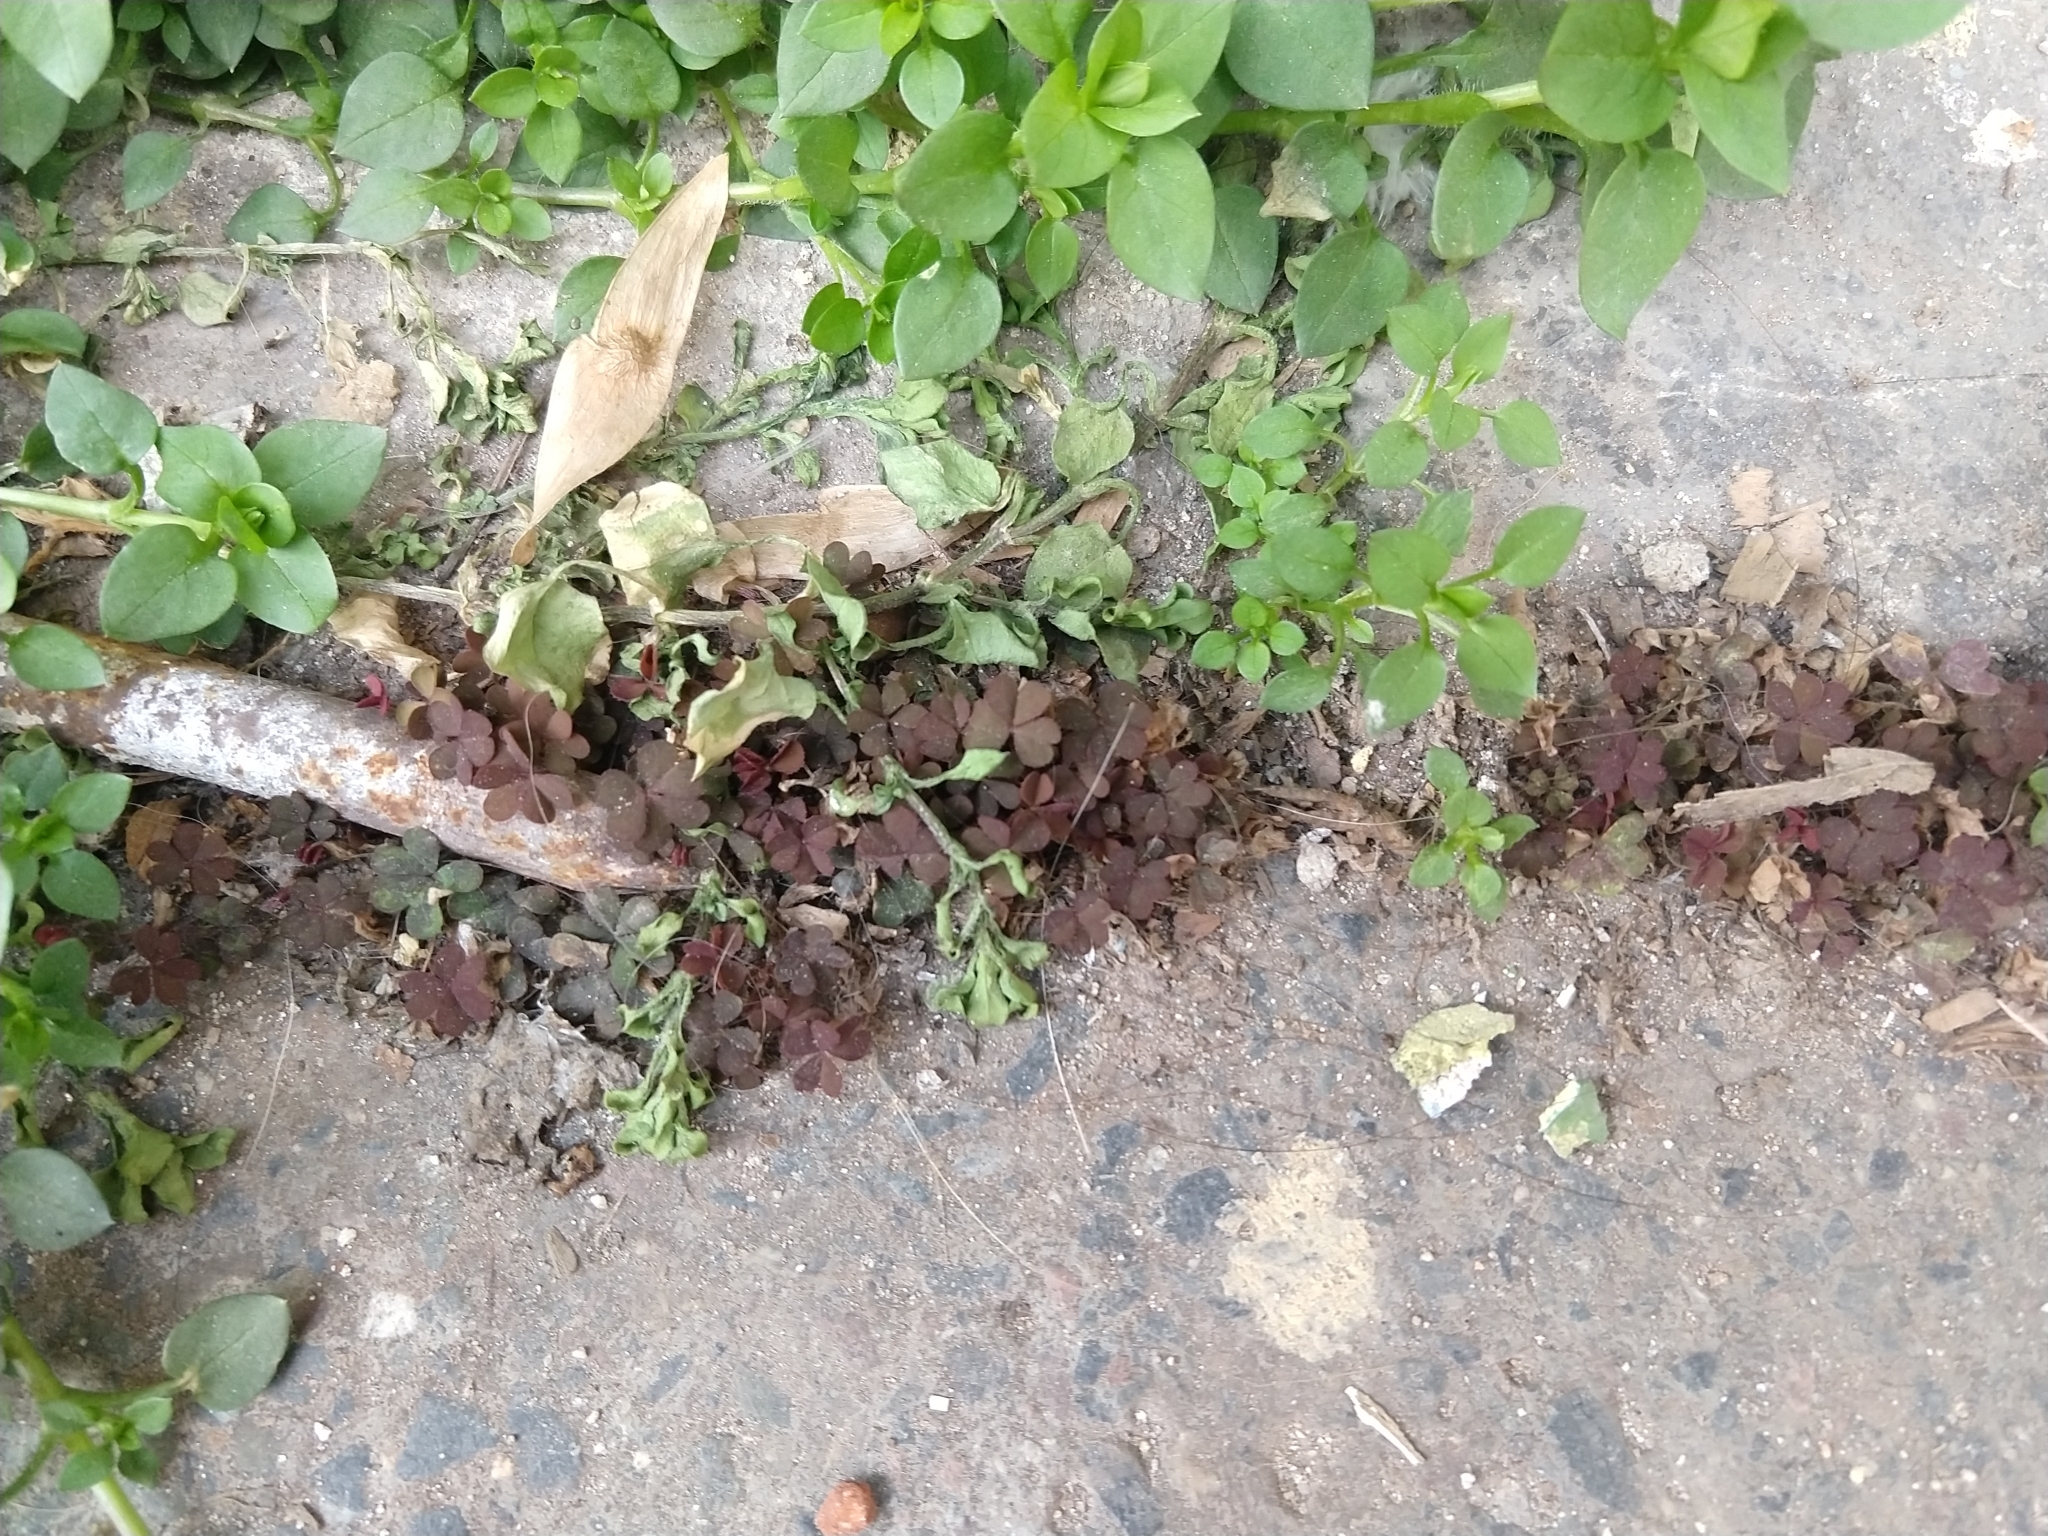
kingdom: Plantae
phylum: Tracheophyta
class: Magnoliopsida
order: Oxalidales
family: Oxalidaceae
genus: Oxalis
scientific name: Oxalis corniculata
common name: Procumbent yellow-sorrel
